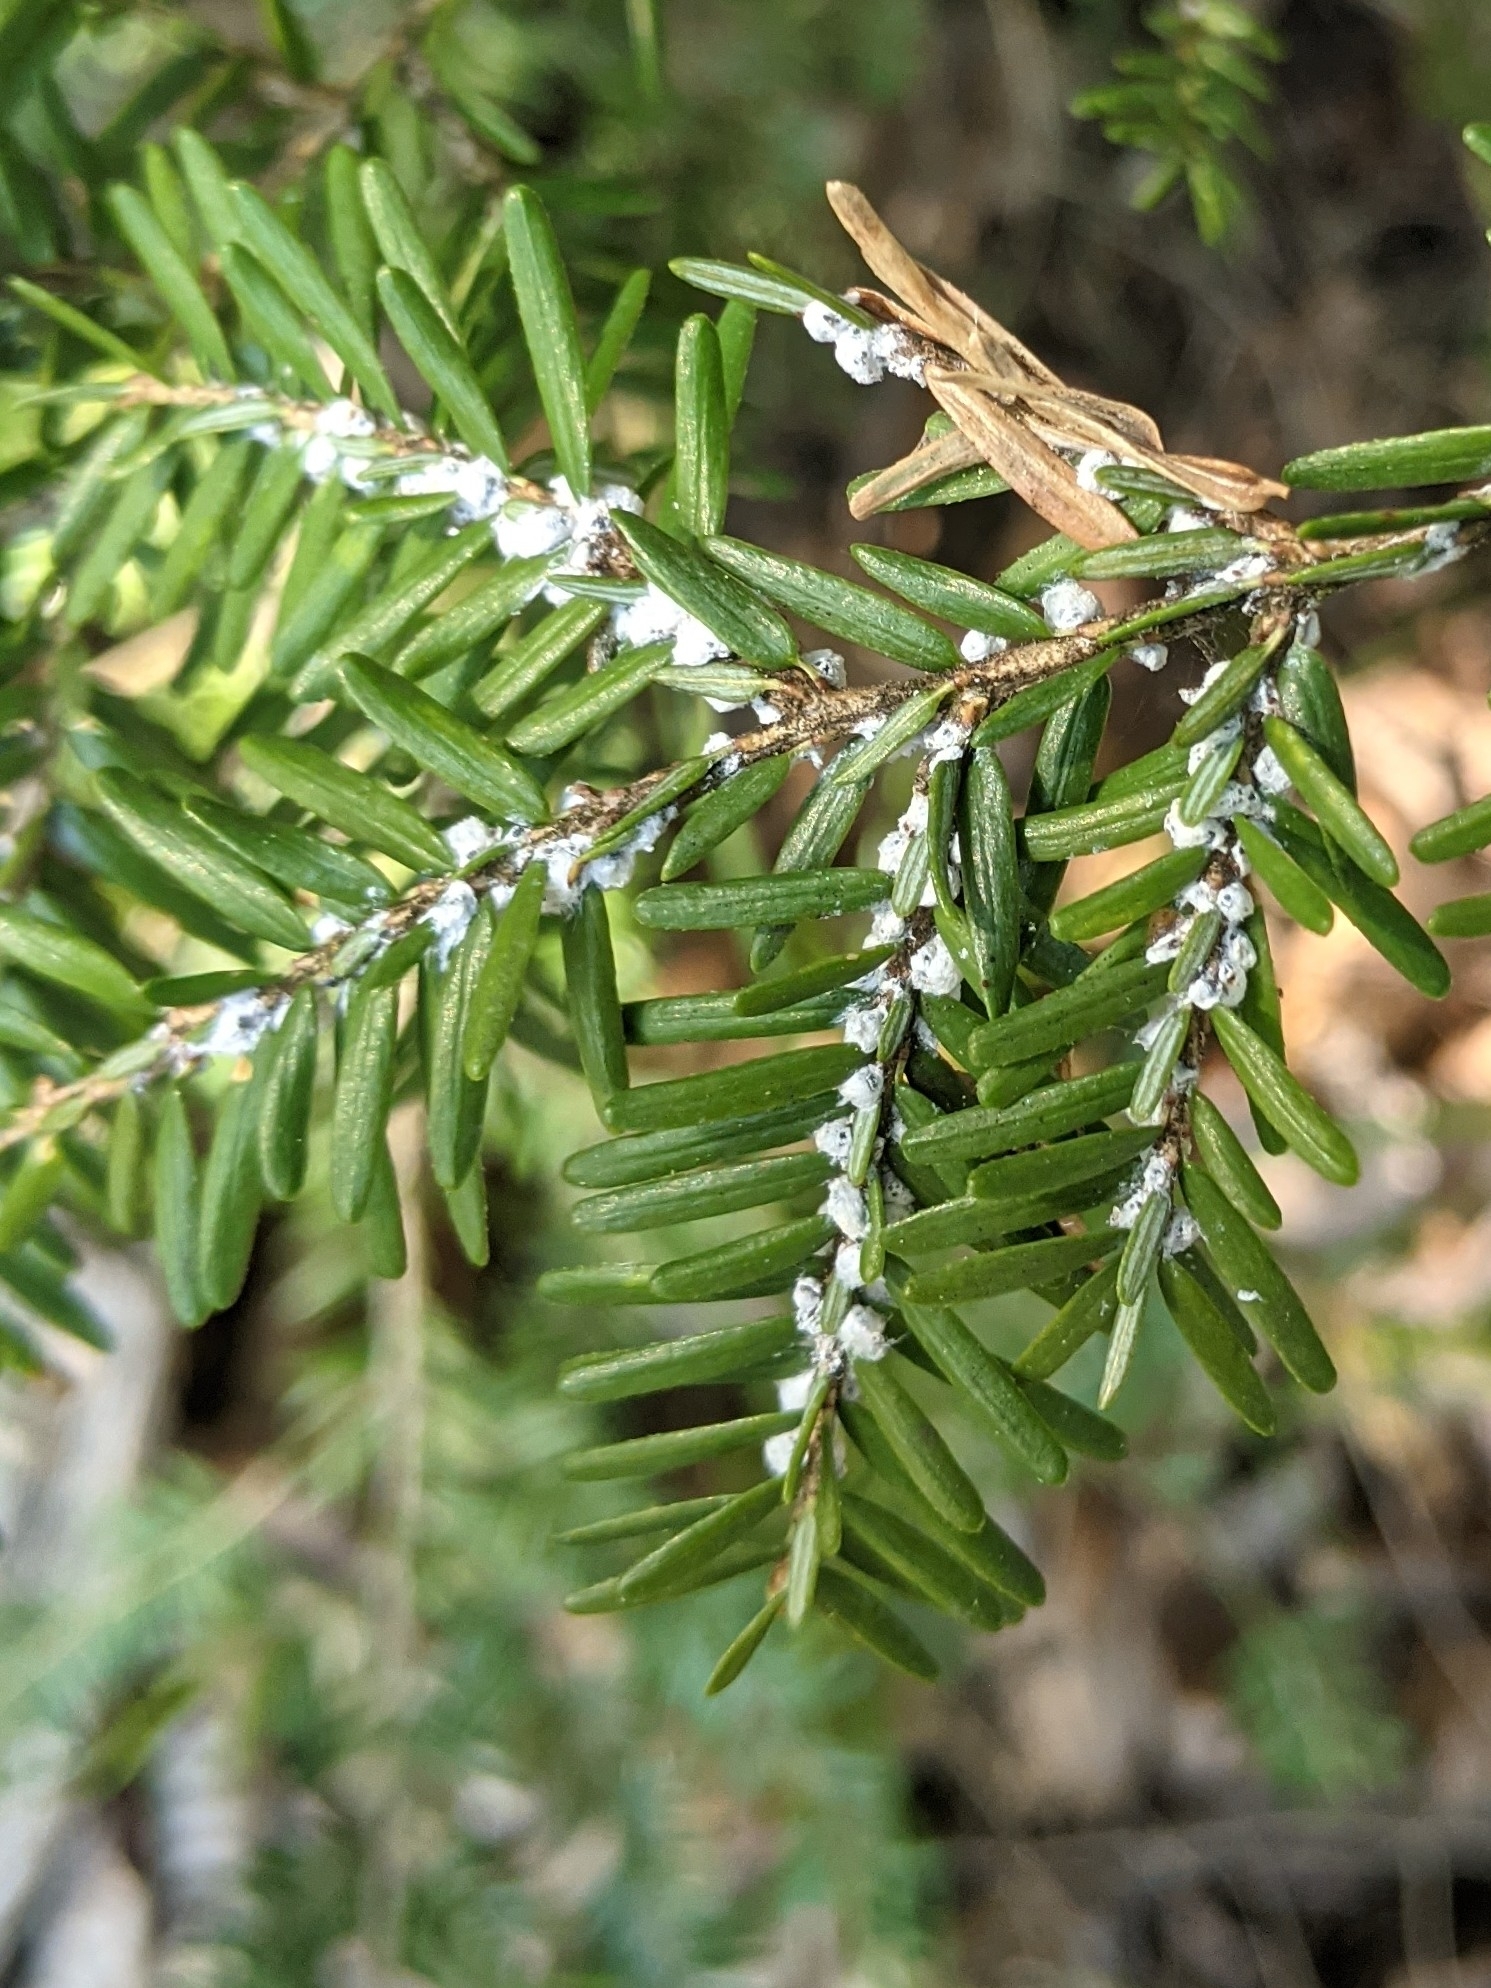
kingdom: Animalia
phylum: Arthropoda
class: Insecta
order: Hemiptera
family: Adelgidae
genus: Adelges
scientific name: Adelges tsugae
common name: Hemlock woolly adelgid
